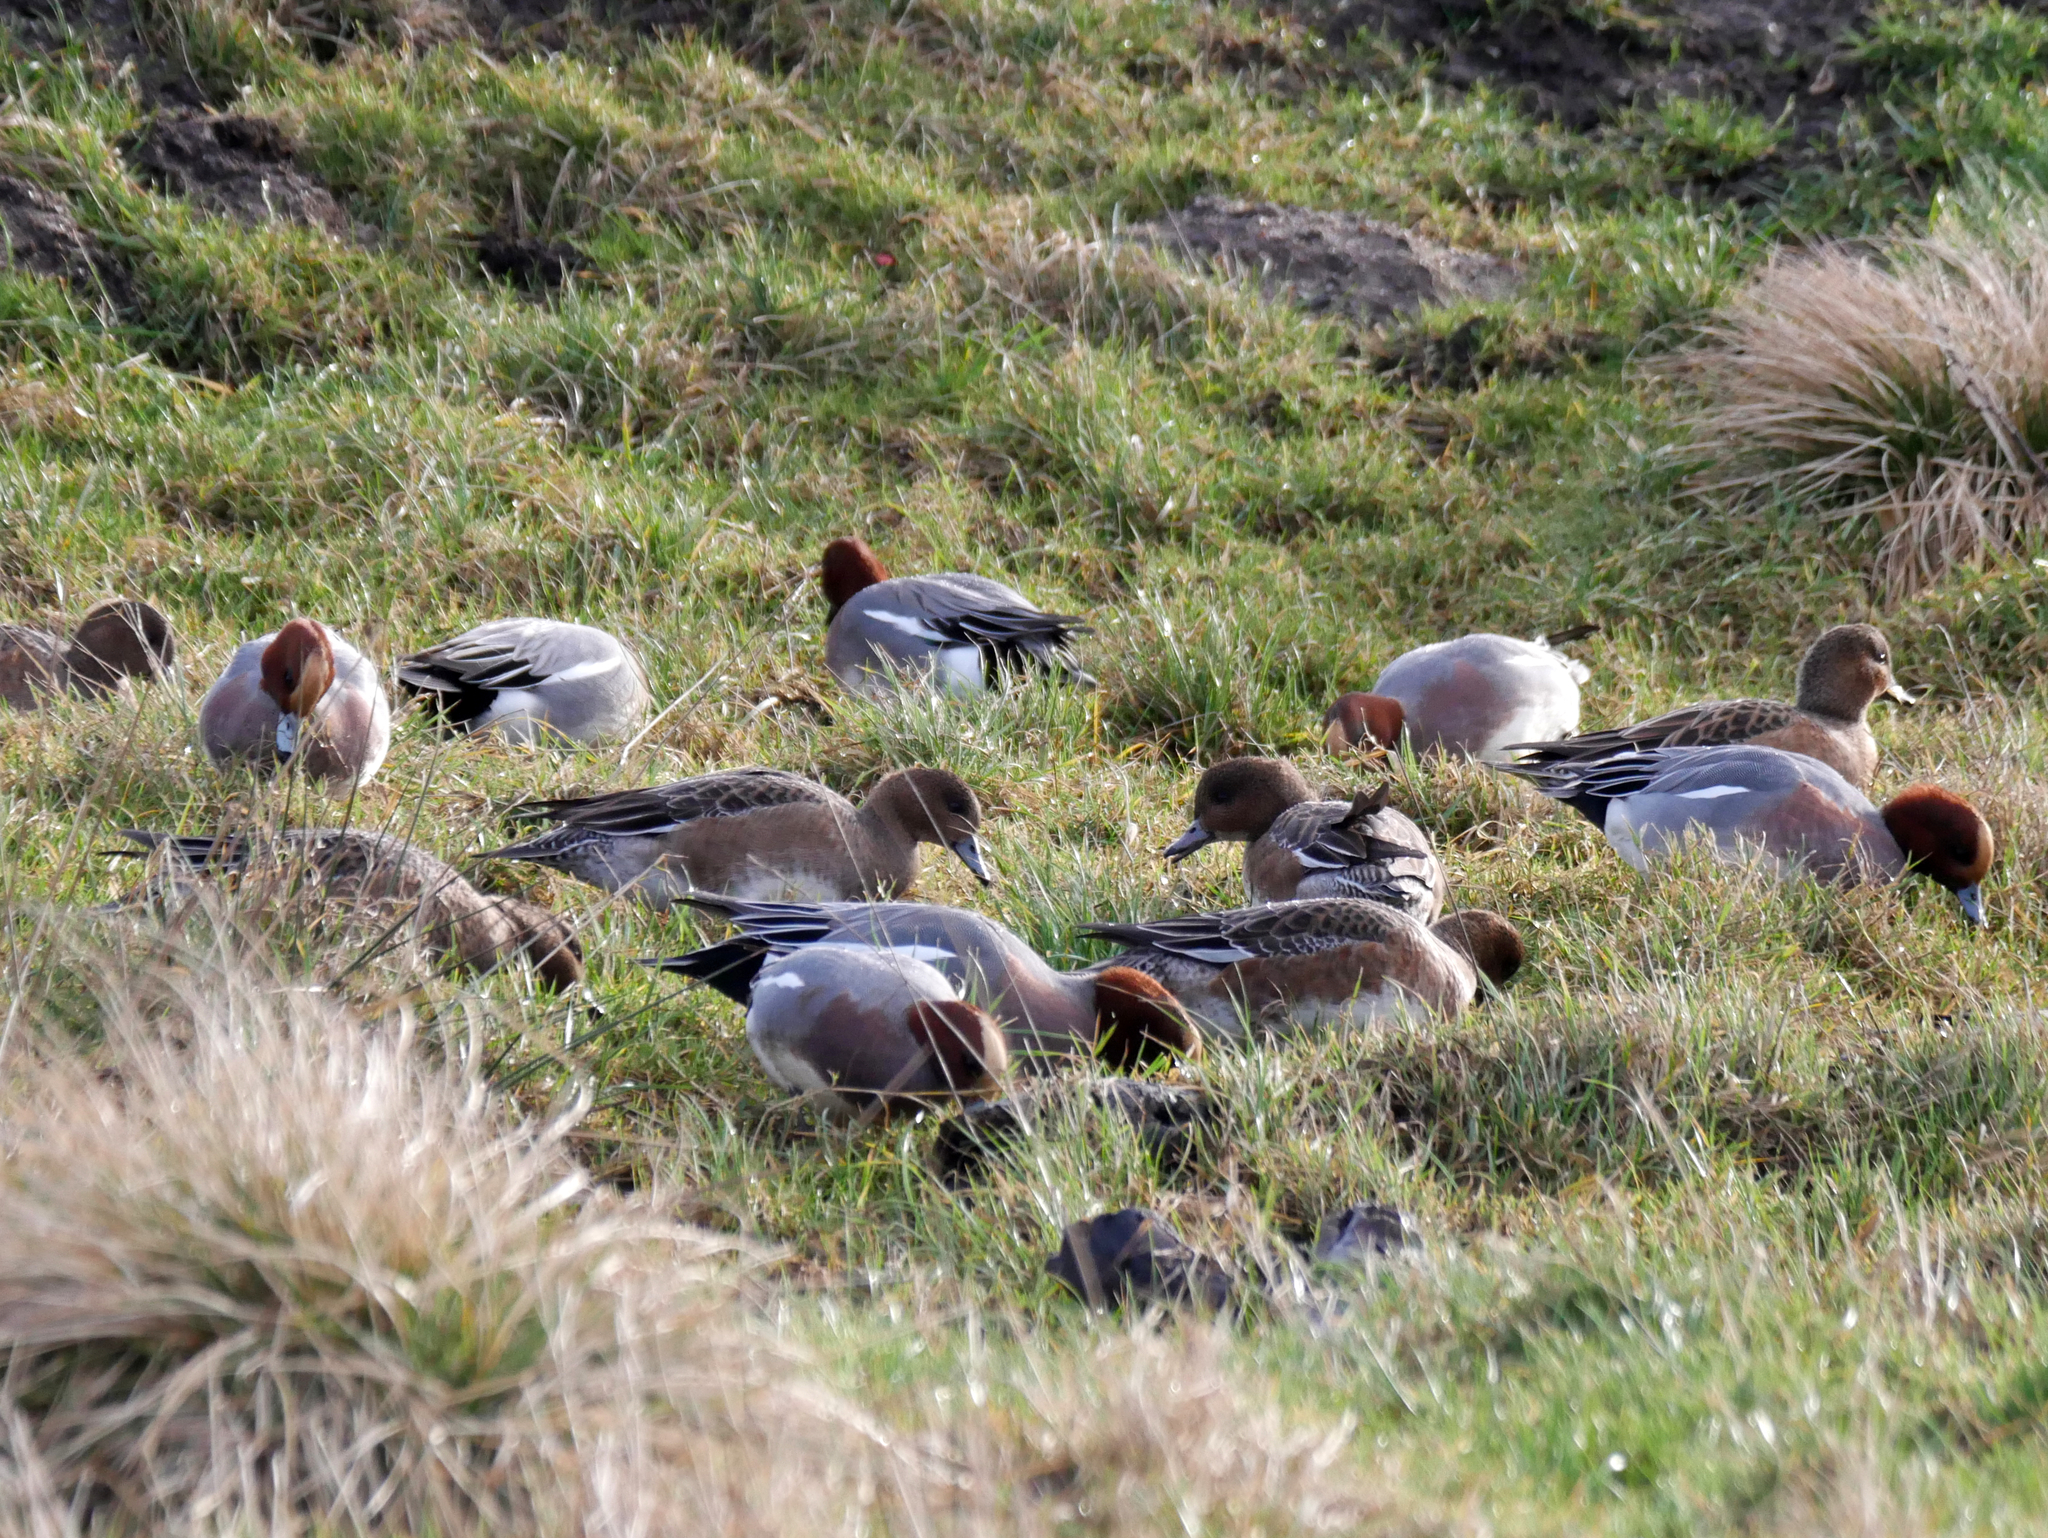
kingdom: Animalia
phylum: Chordata
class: Aves
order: Anseriformes
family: Anatidae
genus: Mareca
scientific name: Mareca penelope
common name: Eurasian wigeon
